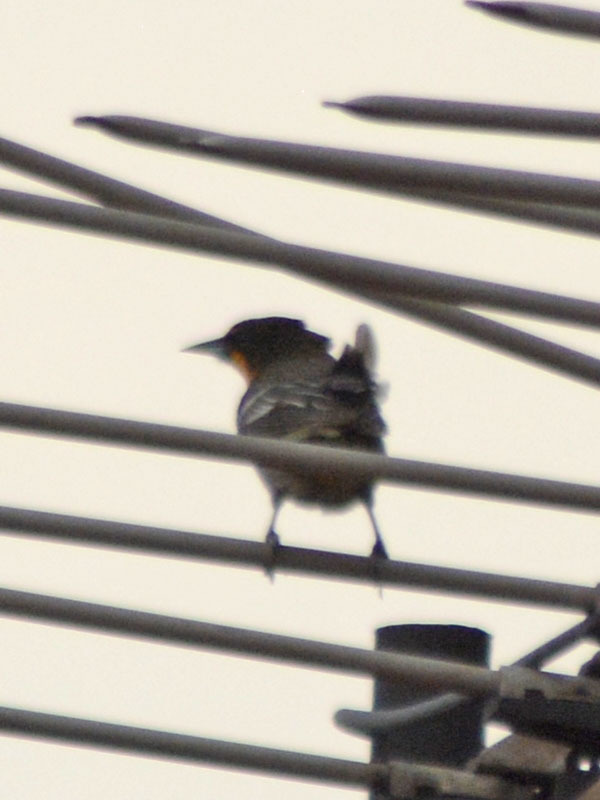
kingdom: Animalia
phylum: Chordata
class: Aves
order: Passeriformes
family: Icteridae
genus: Icterus
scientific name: Icterus abeillei
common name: Black-backed oriole
